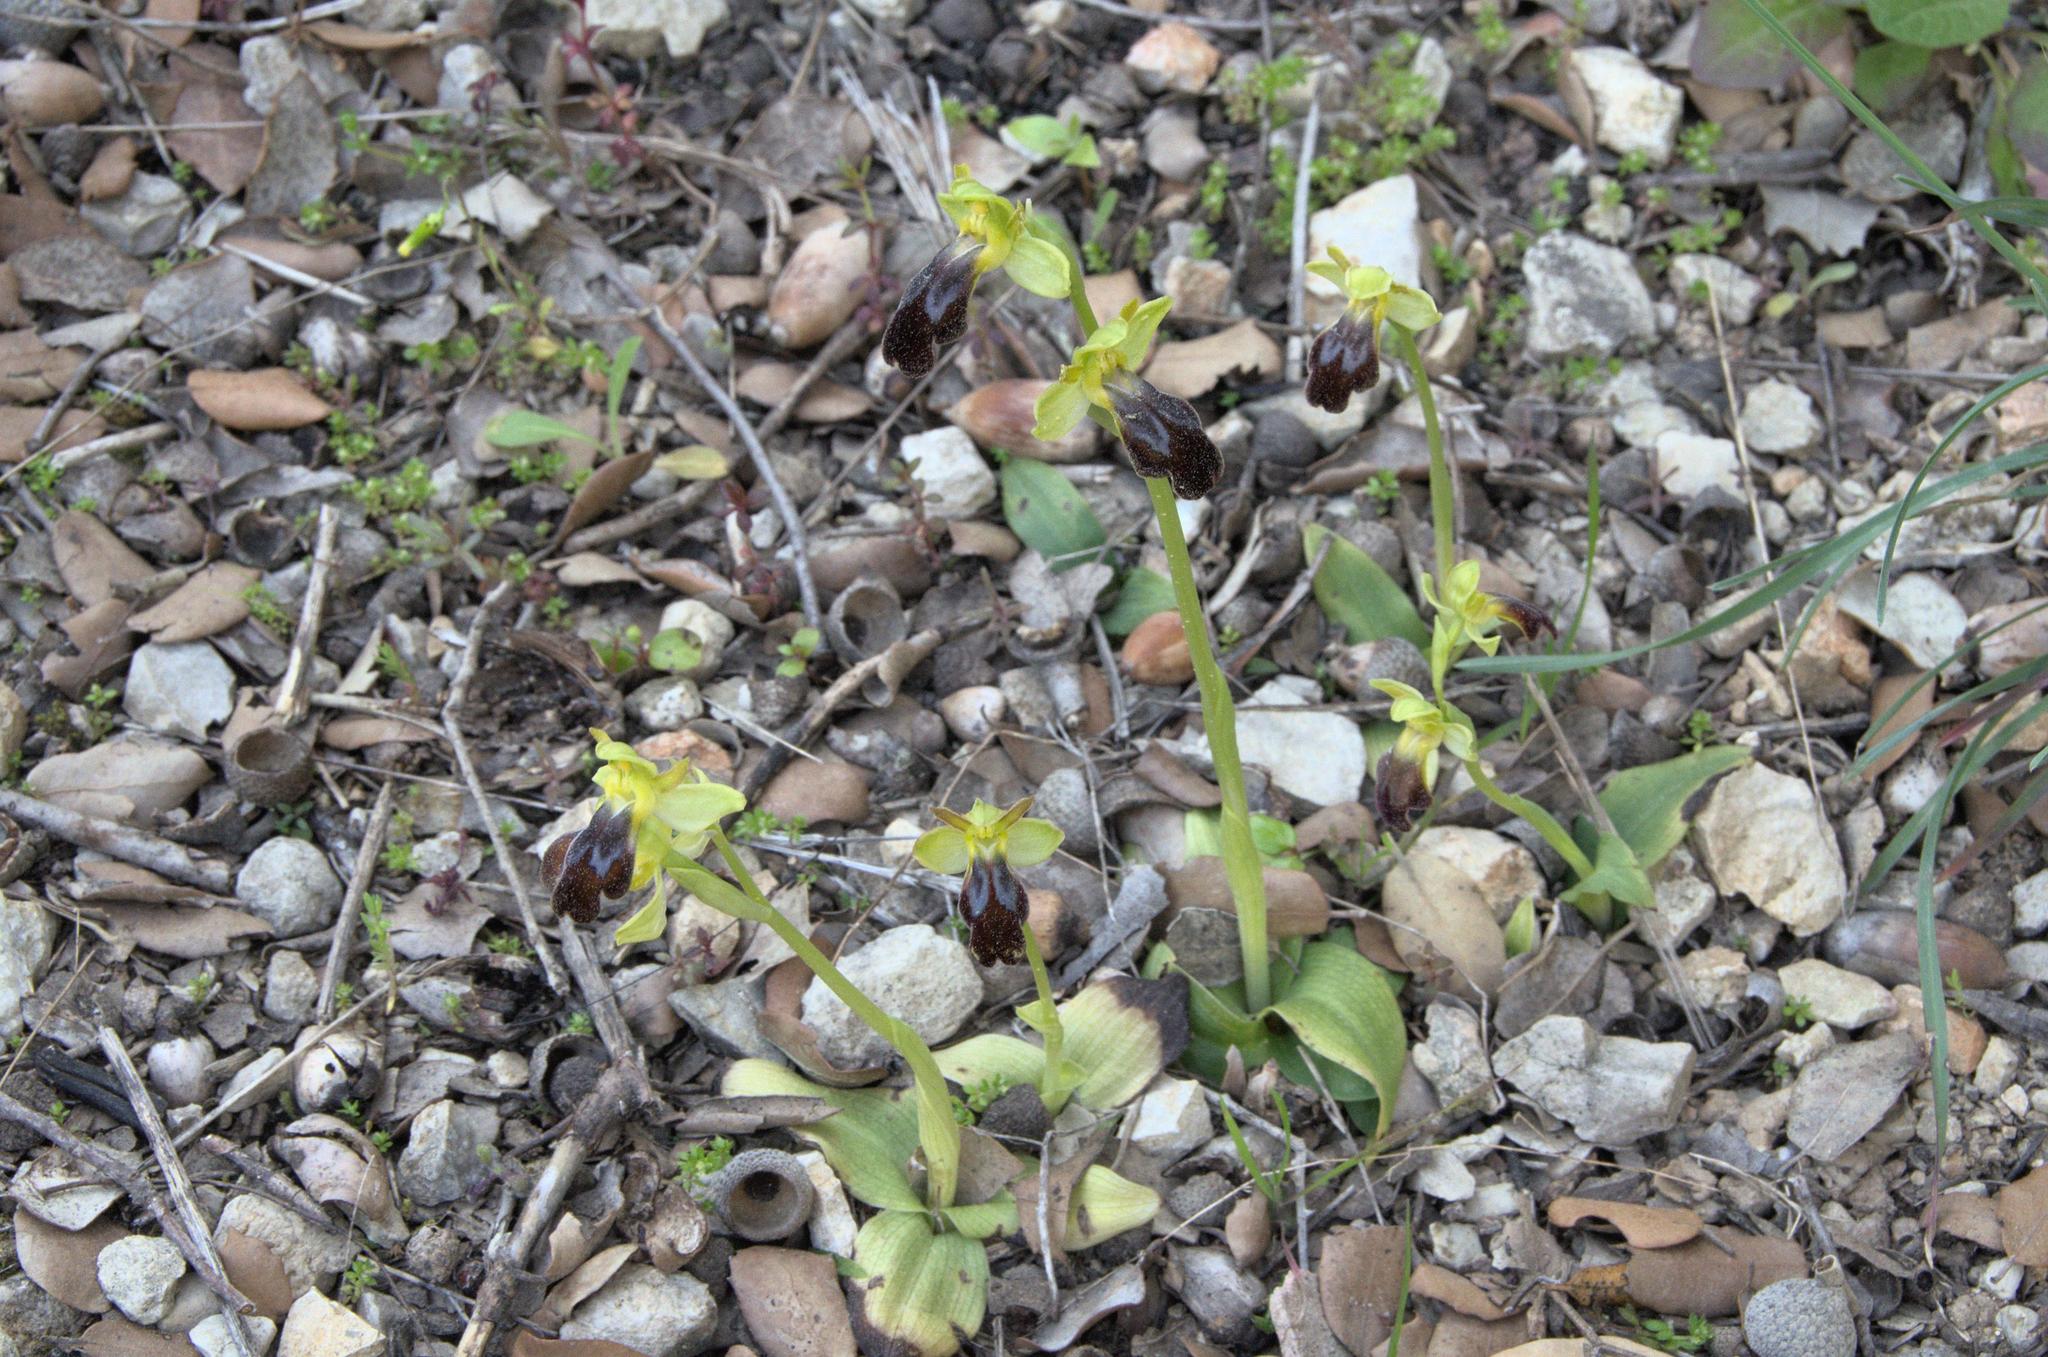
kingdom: Plantae
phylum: Tracheophyta
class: Liliopsida
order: Asparagales
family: Orchidaceae
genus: Ophrys
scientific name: Ophrys fusca
